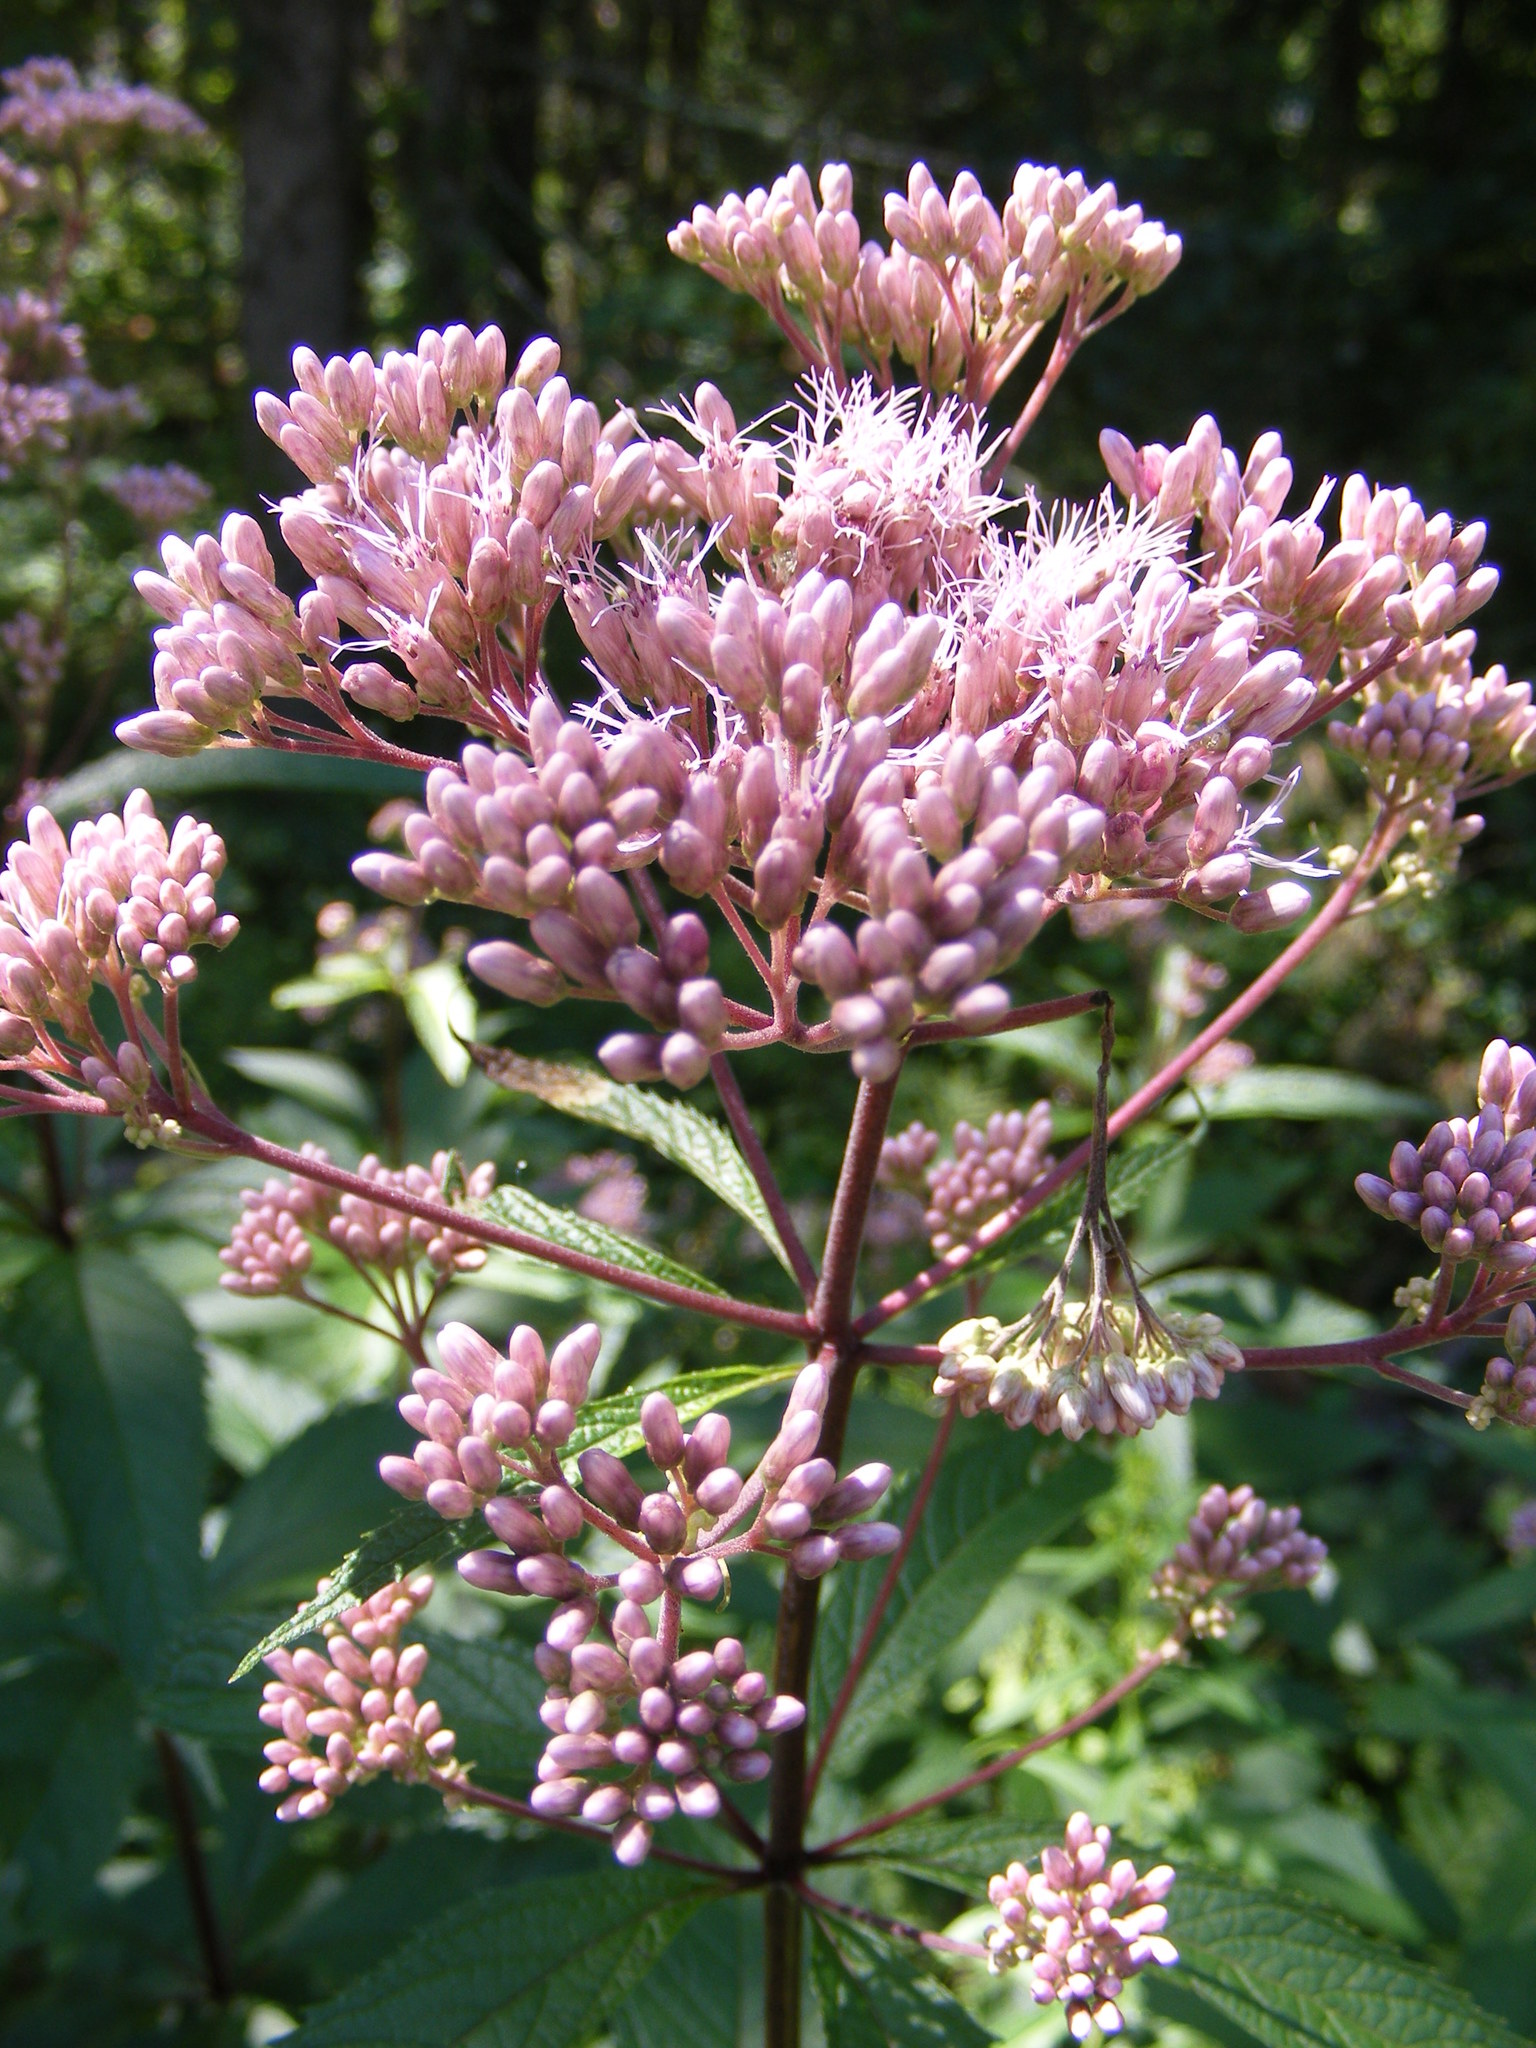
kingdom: Plantae
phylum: Tracheophyta
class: Magnoliopsida
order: Asterales
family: Asteraceae
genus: Eutrochium
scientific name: Eutrochium maculatum
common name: Spotted joe pye weed
